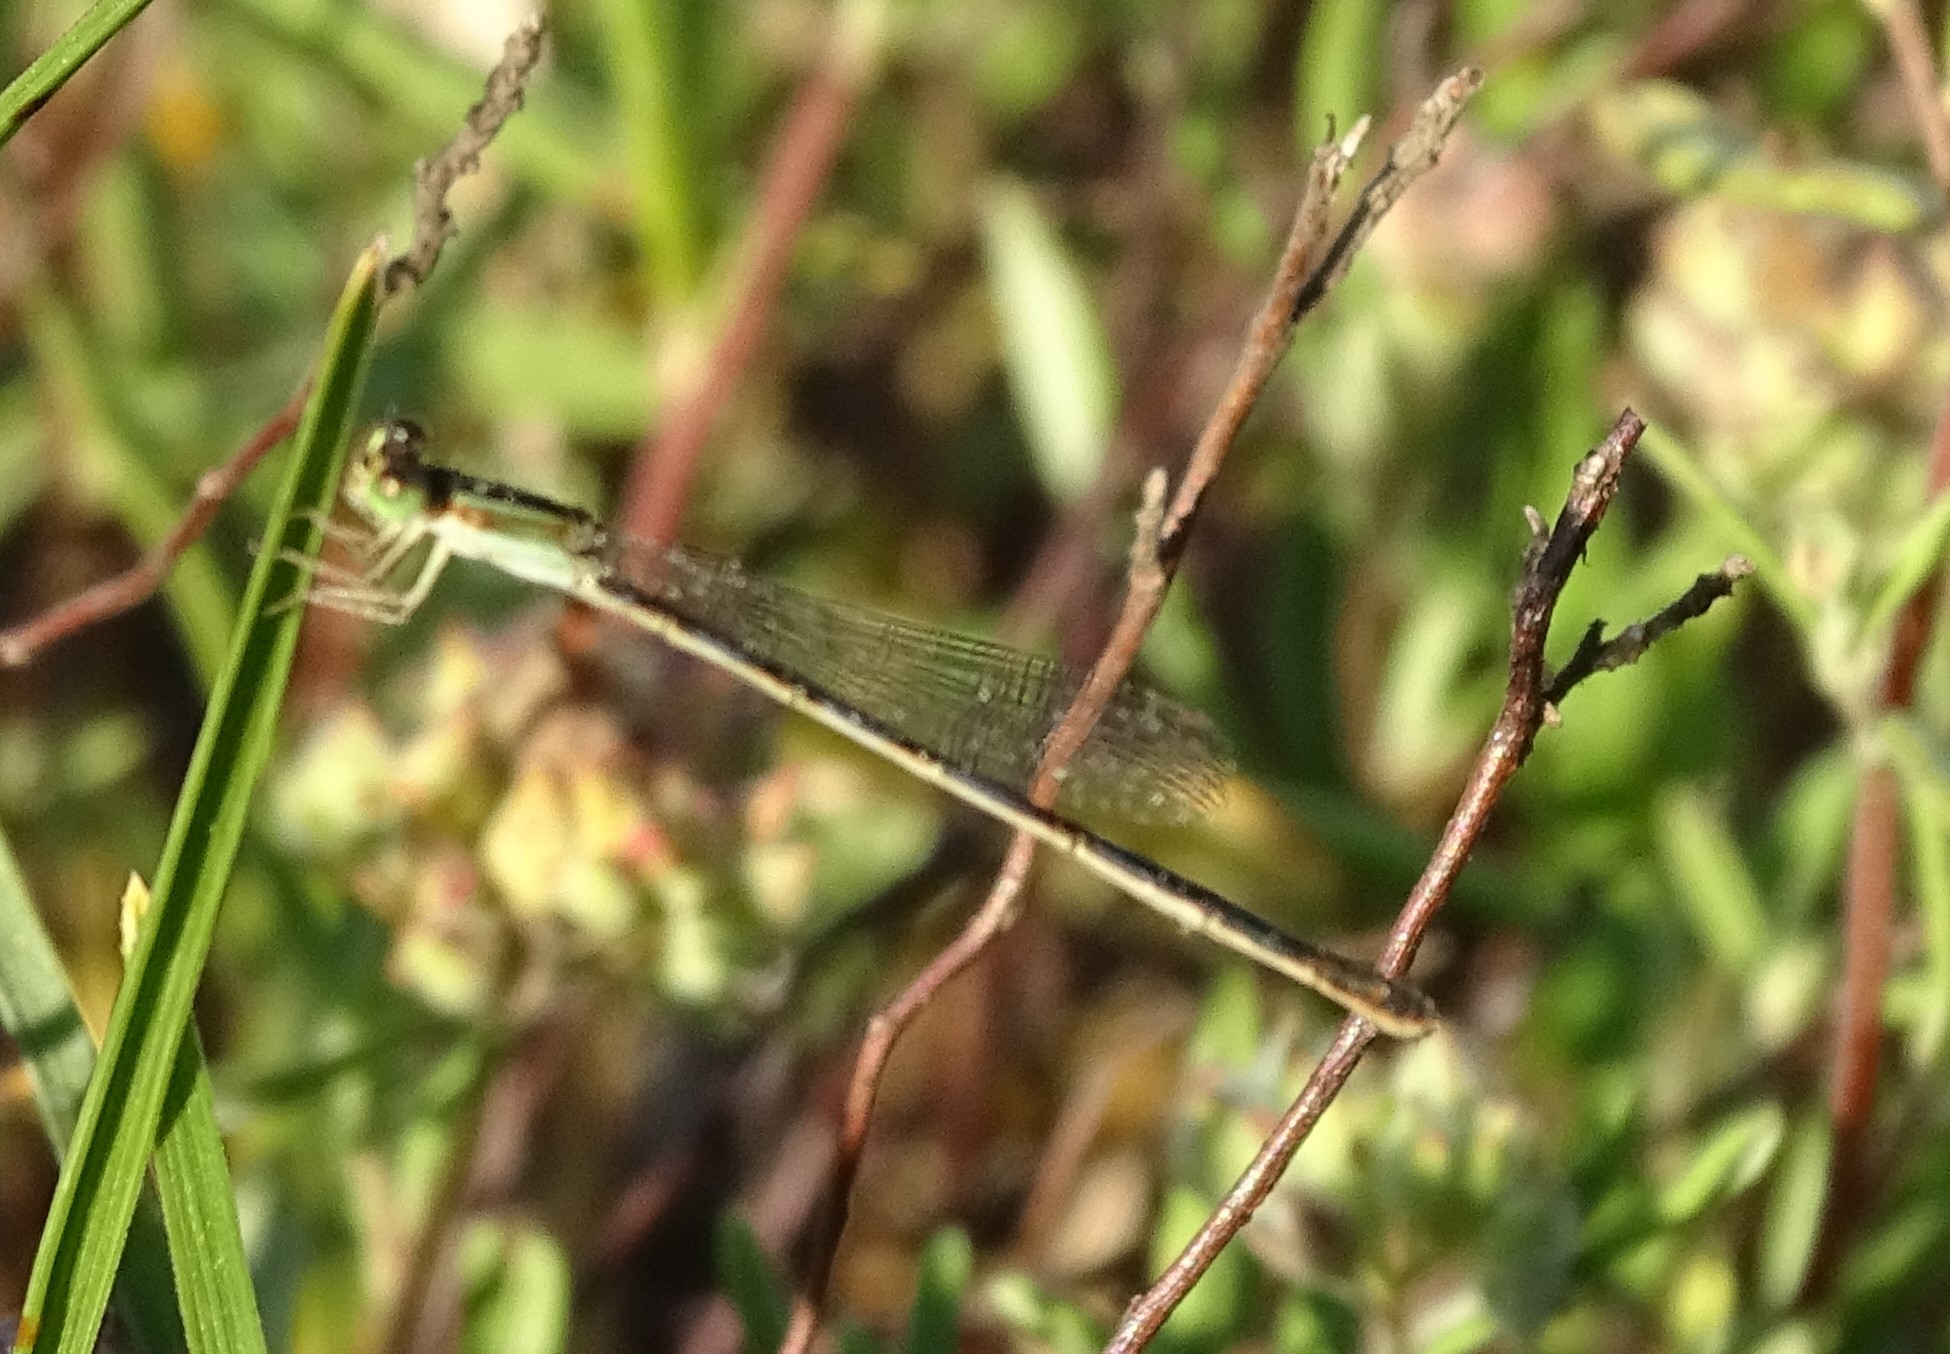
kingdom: Animalia
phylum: Arthropoda
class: Insecta
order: Odonata
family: Coenagrionidae
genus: Ischnura
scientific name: Ischnura hastata
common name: Citrine forktail
